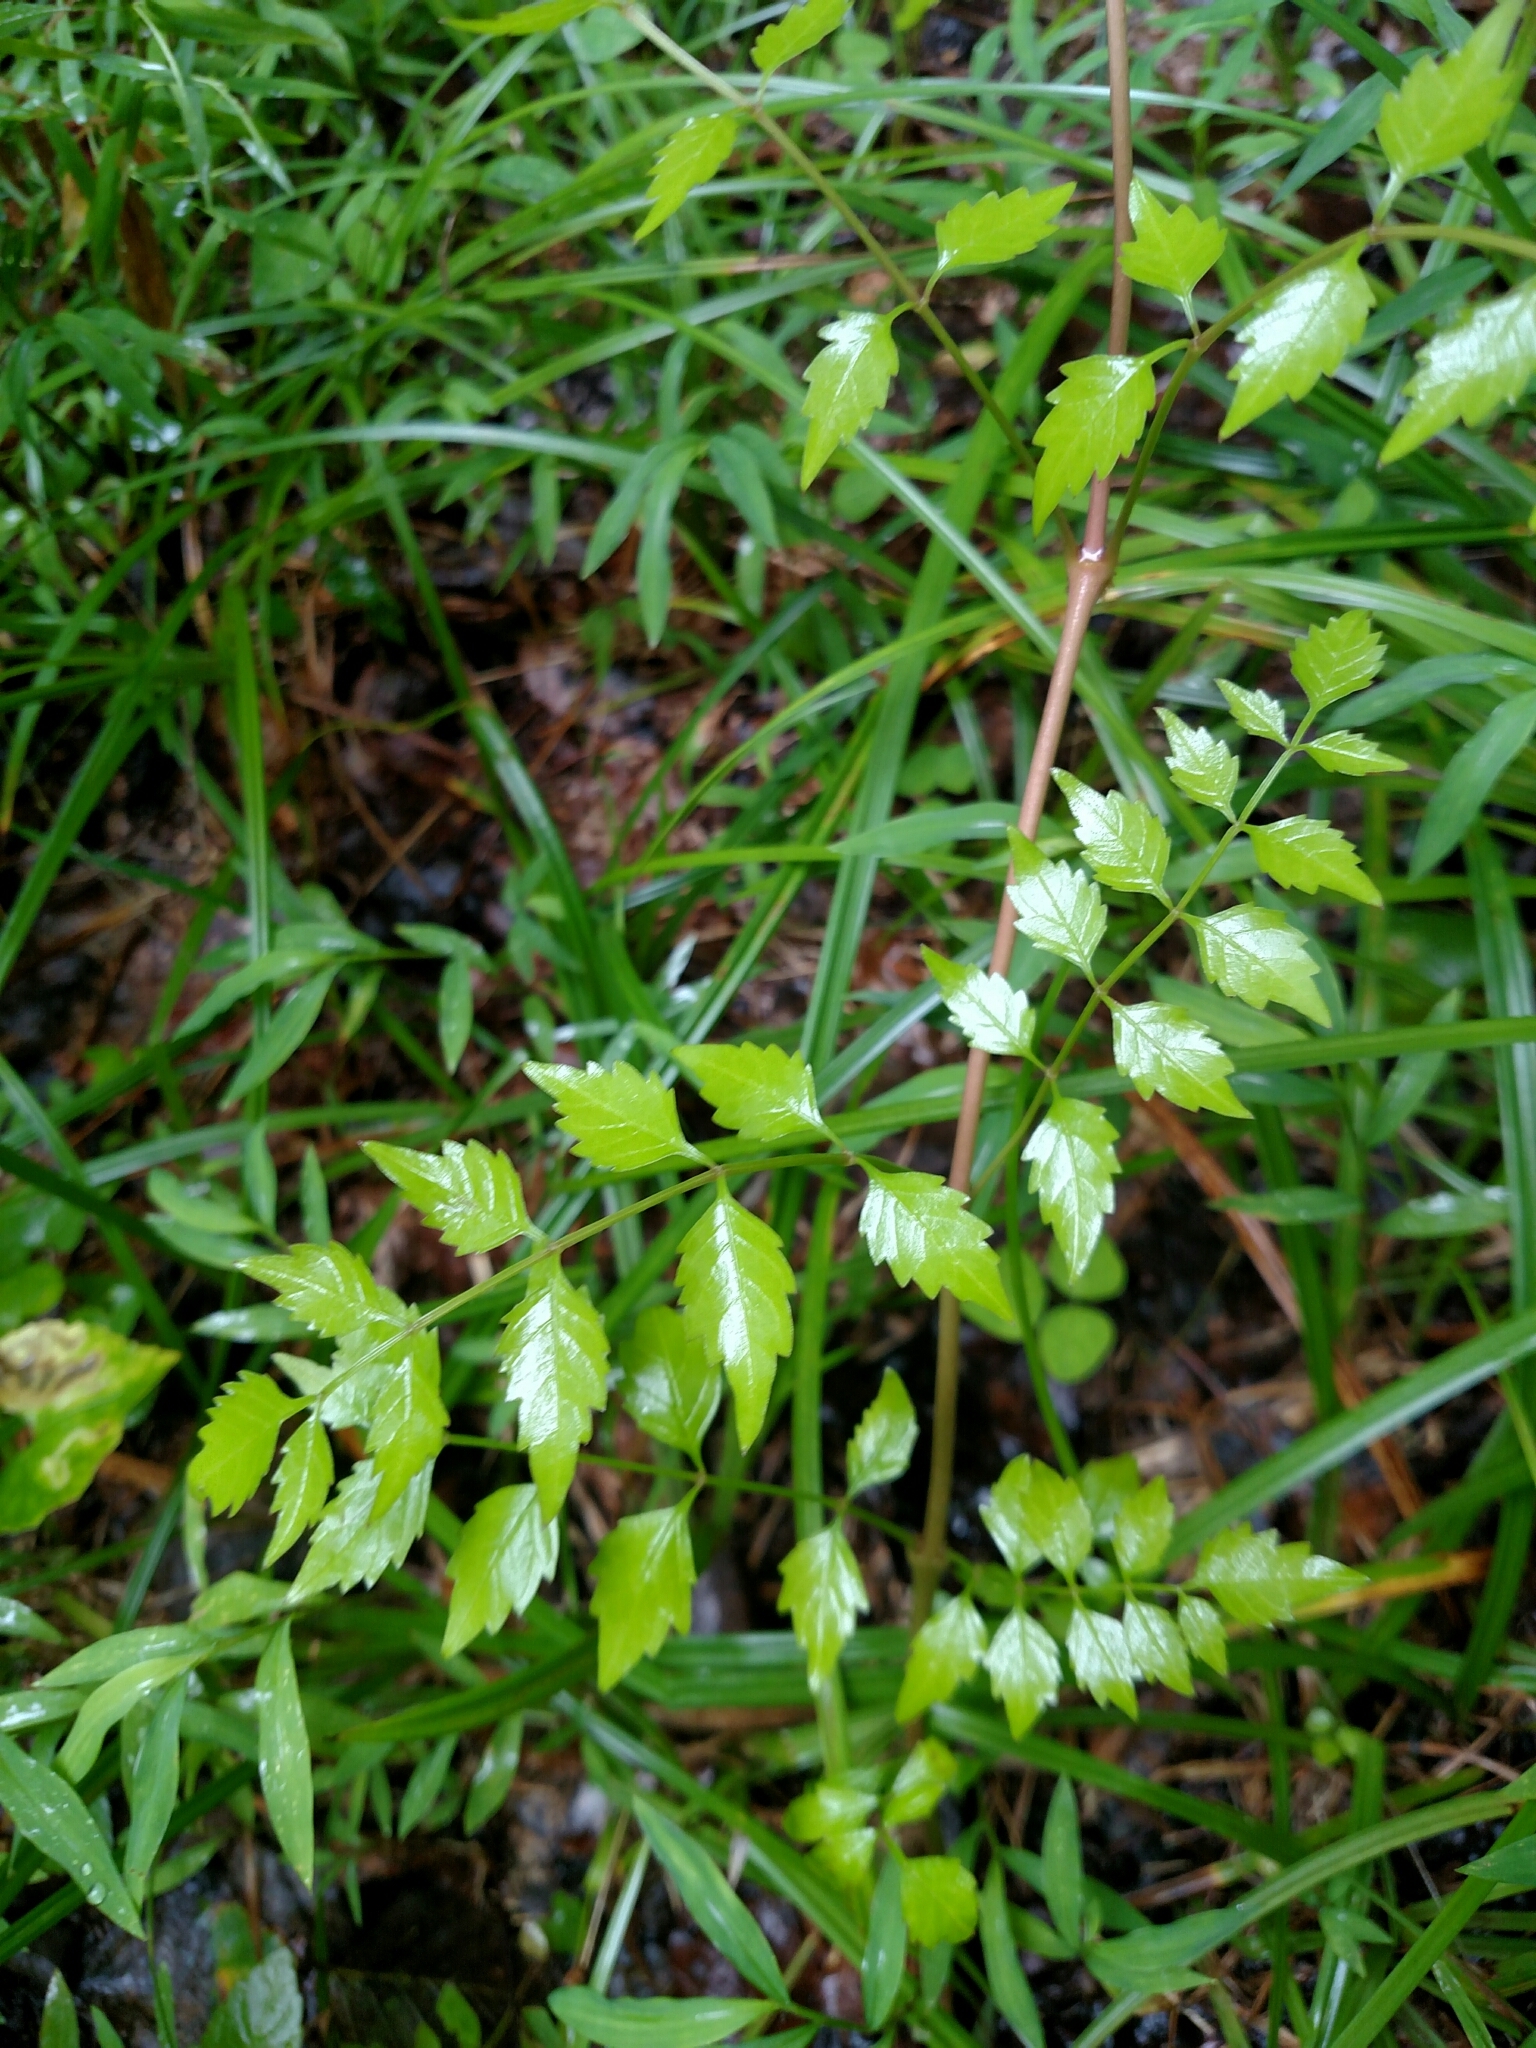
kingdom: Plantae
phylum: Tracheophyta
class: Magnoliopsida
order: Lamiales
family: Bignoniaceae
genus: Campsis
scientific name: Campsis radicans
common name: Trumpet-creeper
